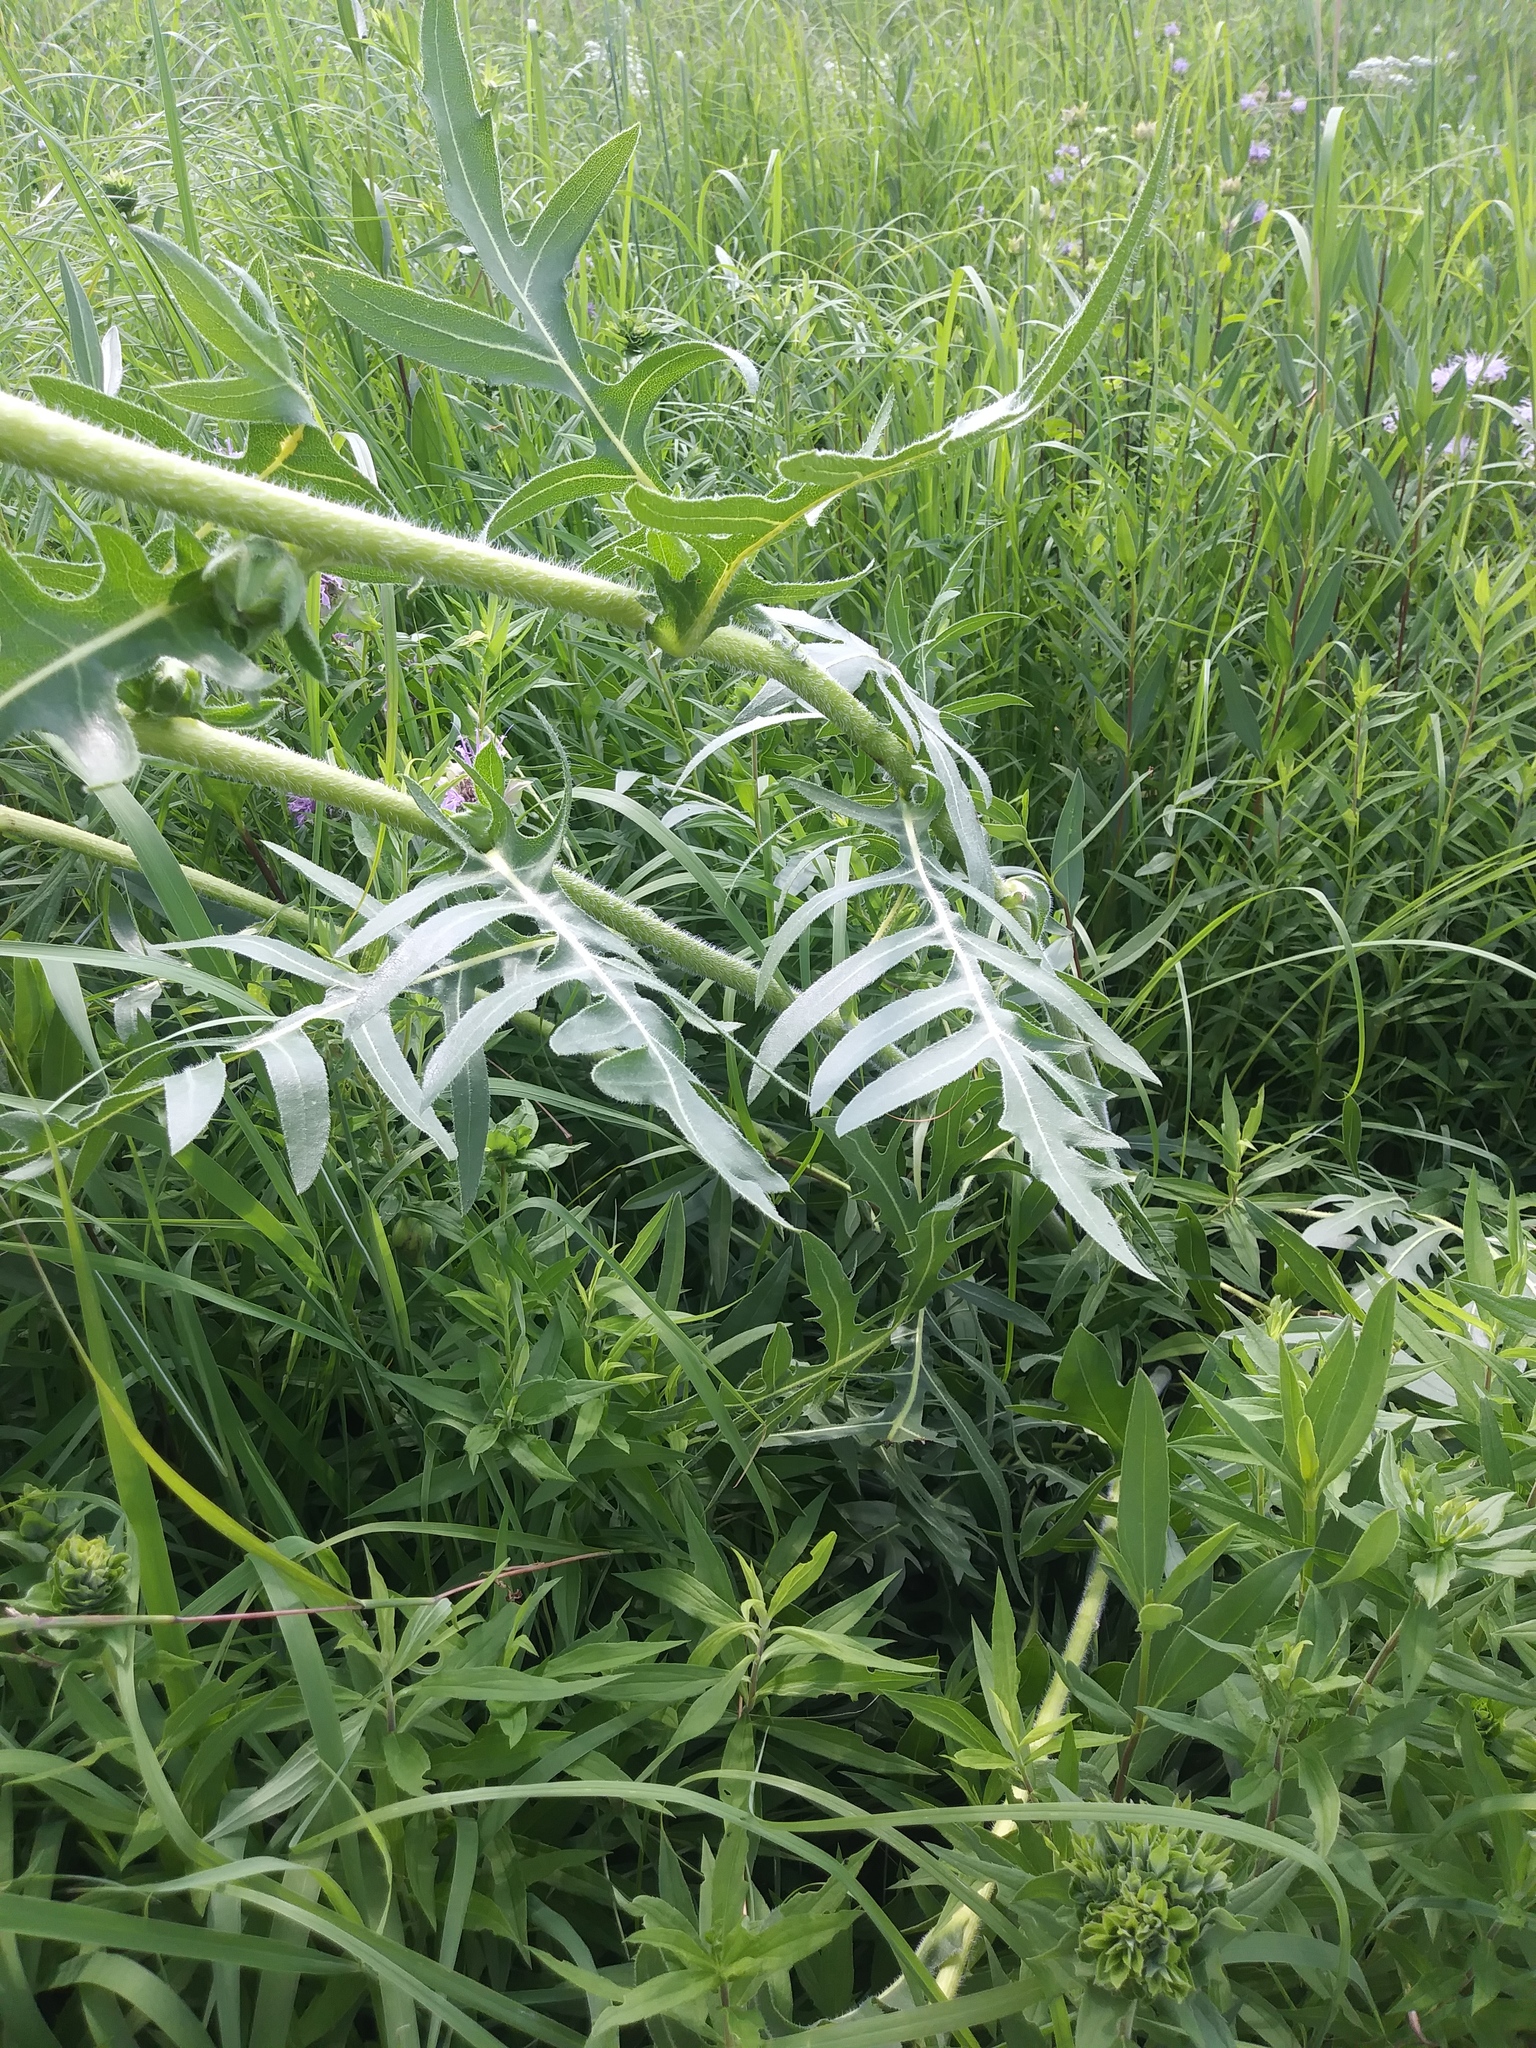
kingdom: Plantae
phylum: Tracheophyta
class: Magnoliopsida
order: Asterales
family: Asteraceae
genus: Silphium
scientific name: Silphium laciniatum
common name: Polarplant
